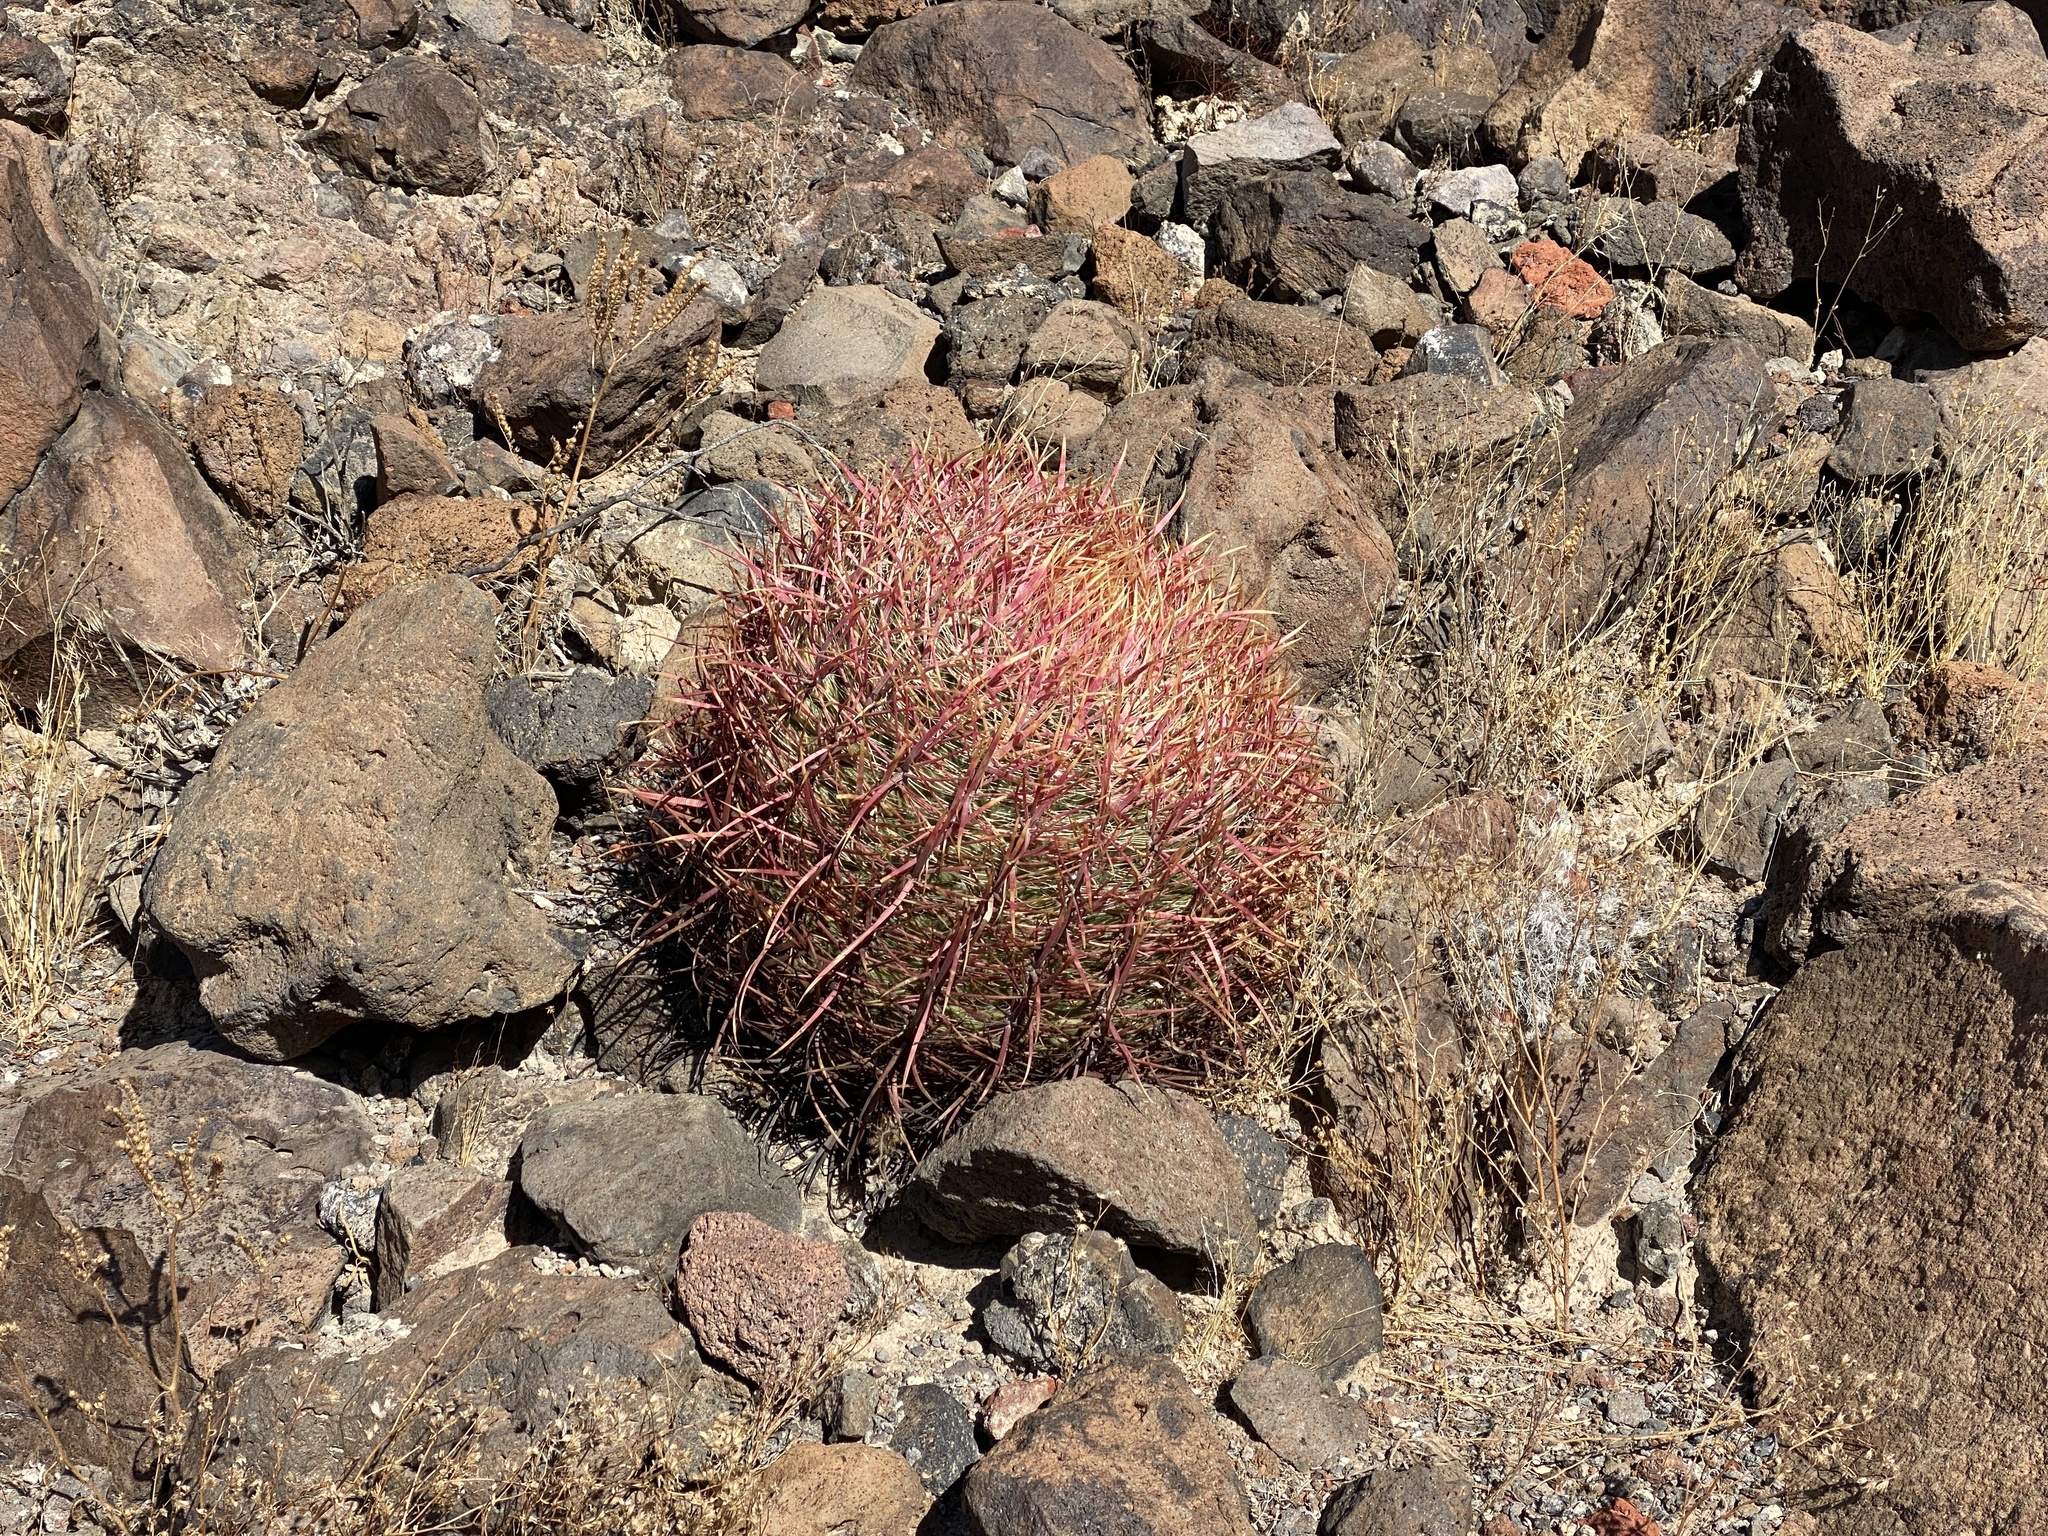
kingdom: Plantae
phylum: Tracheophyta
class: Magnoliopsida
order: Caryophyllales
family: Cactaceae
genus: Ferocactus
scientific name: Ferocactus cylindraceus
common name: California barrel cactus
